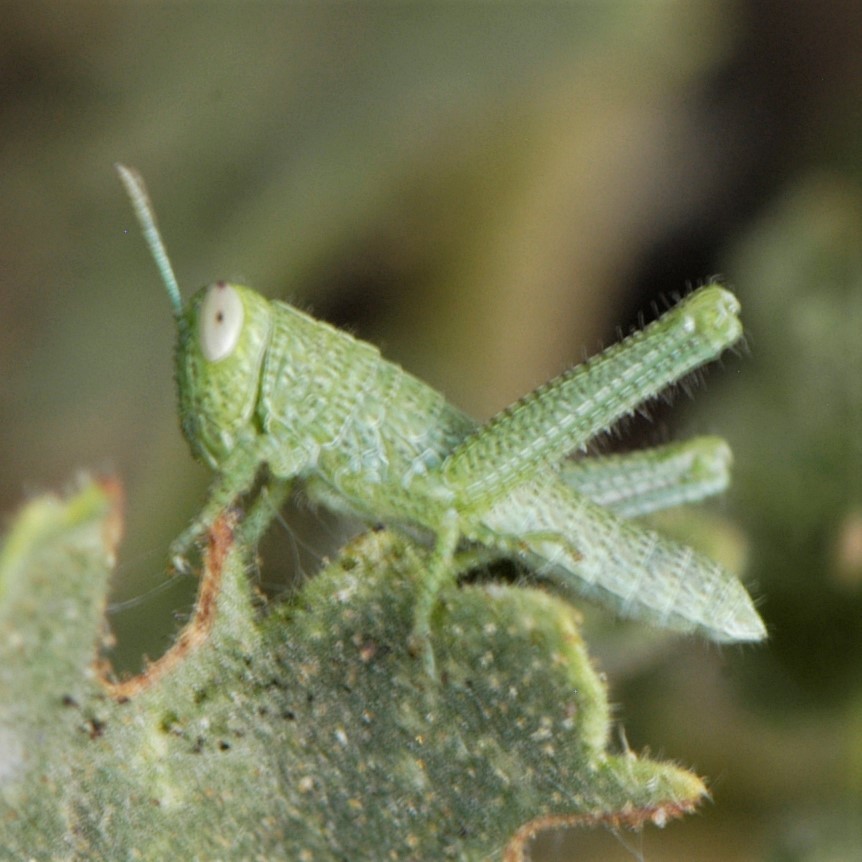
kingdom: Animalia
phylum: Arthropoda
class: Insecta
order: Orthoptera
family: Acrididae
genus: Schistocerca
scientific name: Schistocerca shoshone
